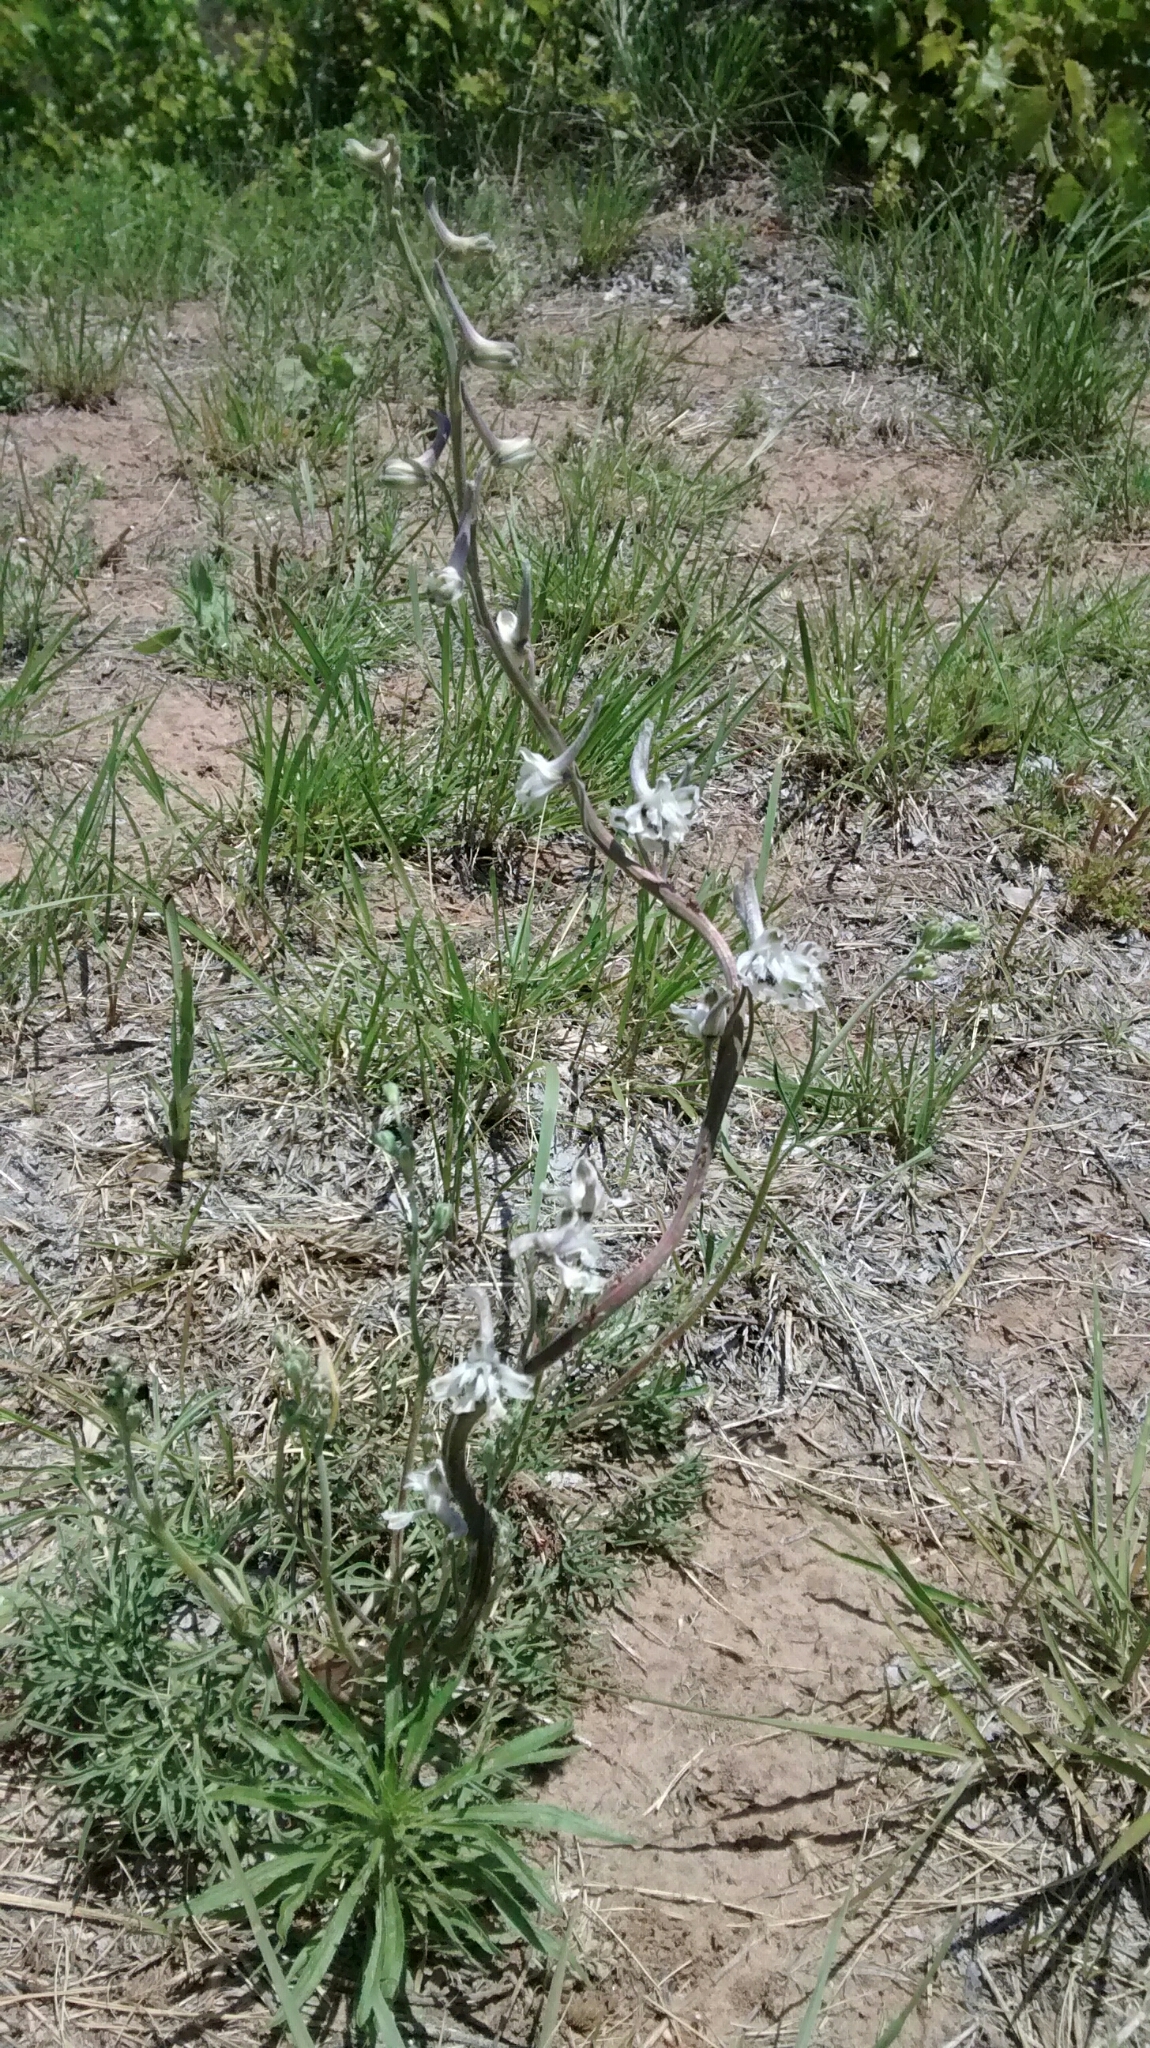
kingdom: Plantae
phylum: Tracheophyta
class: Magnoliopsida
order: Ranunculales
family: Ranunculaceae
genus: Delphinium
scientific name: Delphinium carolinianum
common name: Carolina larkspur
